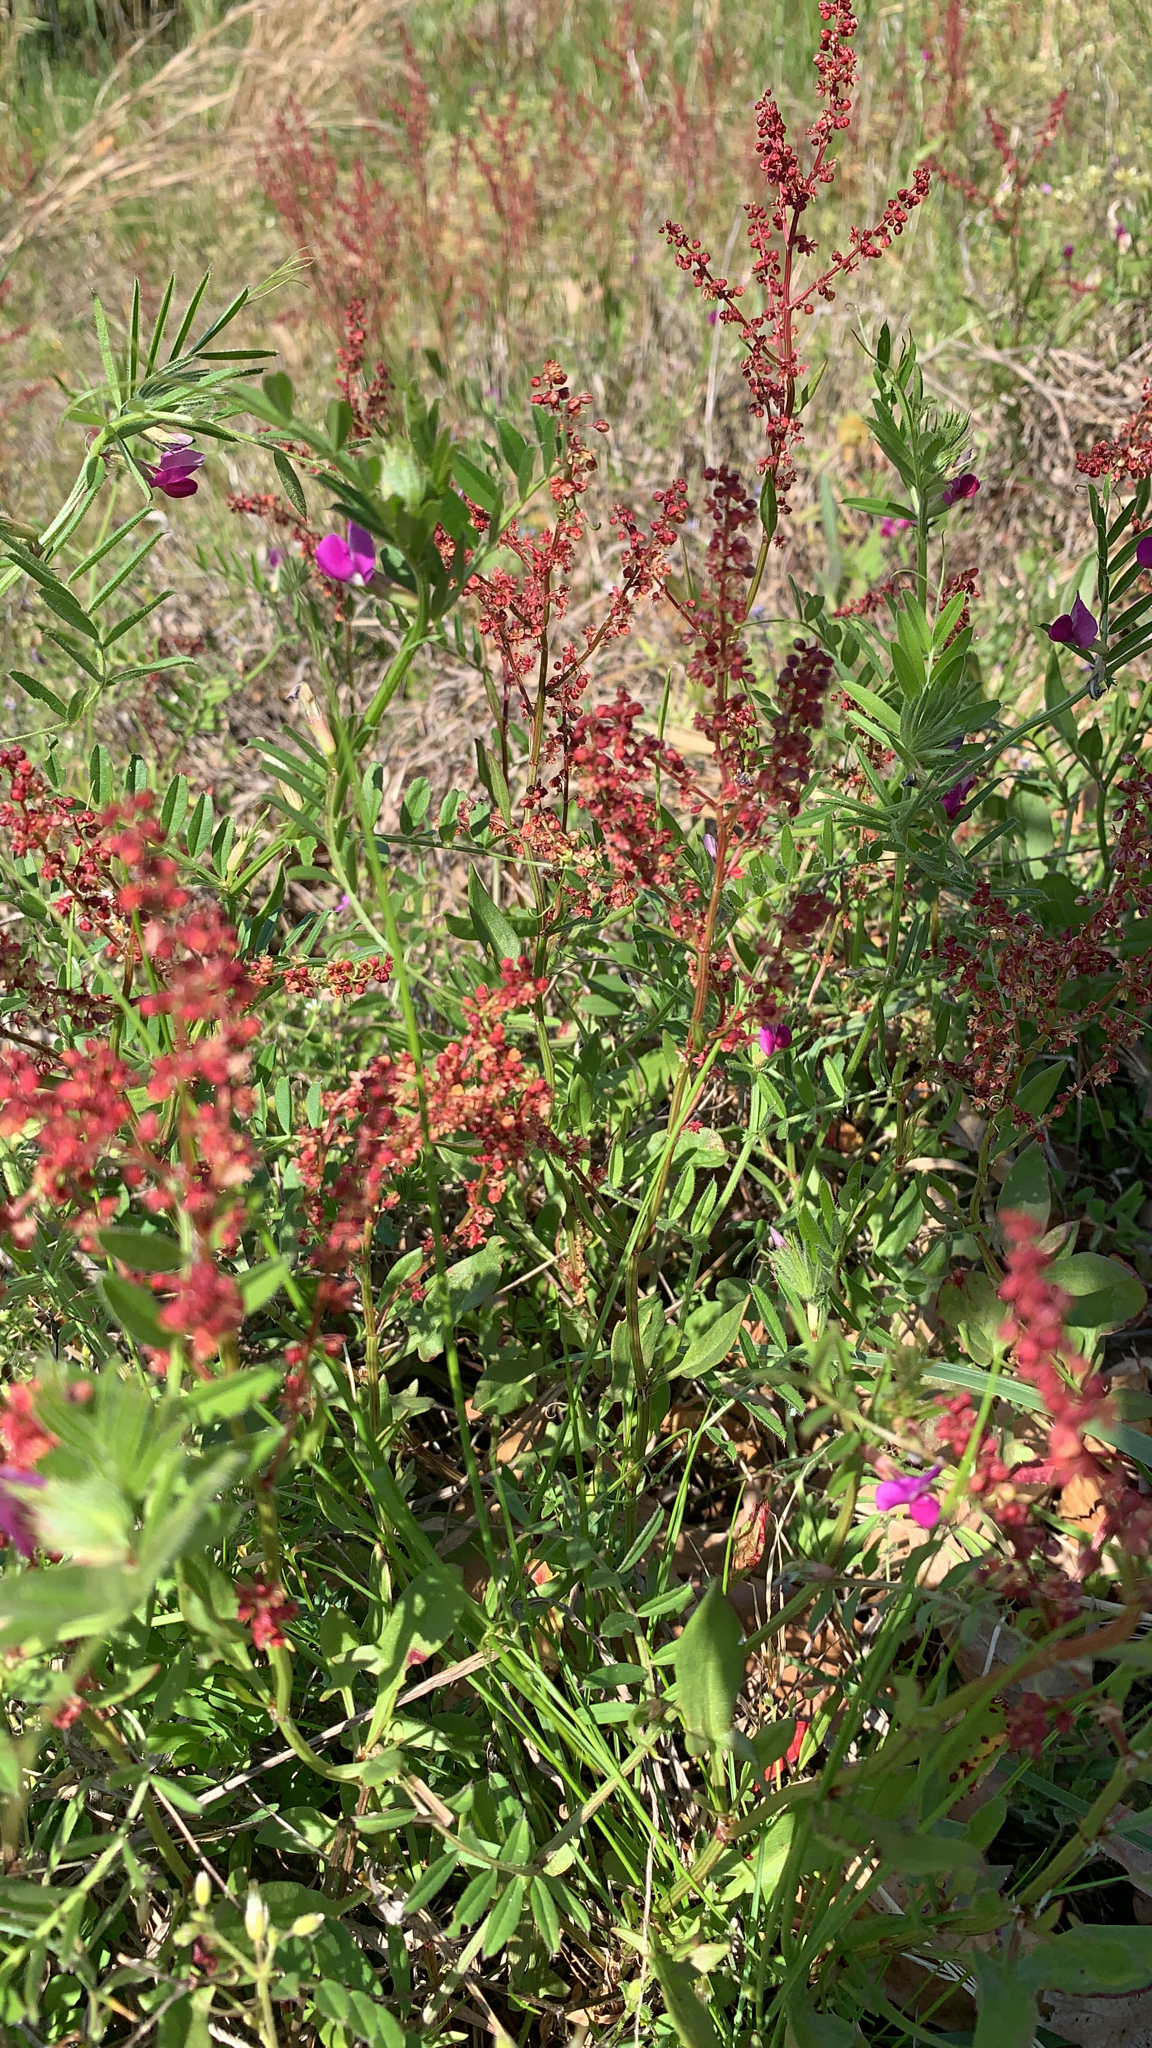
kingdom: Plantae
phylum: Tracheophyta
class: Magnoliopsida
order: Caryophyllales
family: Polygonaceae
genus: Rumex
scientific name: Rumex acetosella
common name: Common sheep sorrel
